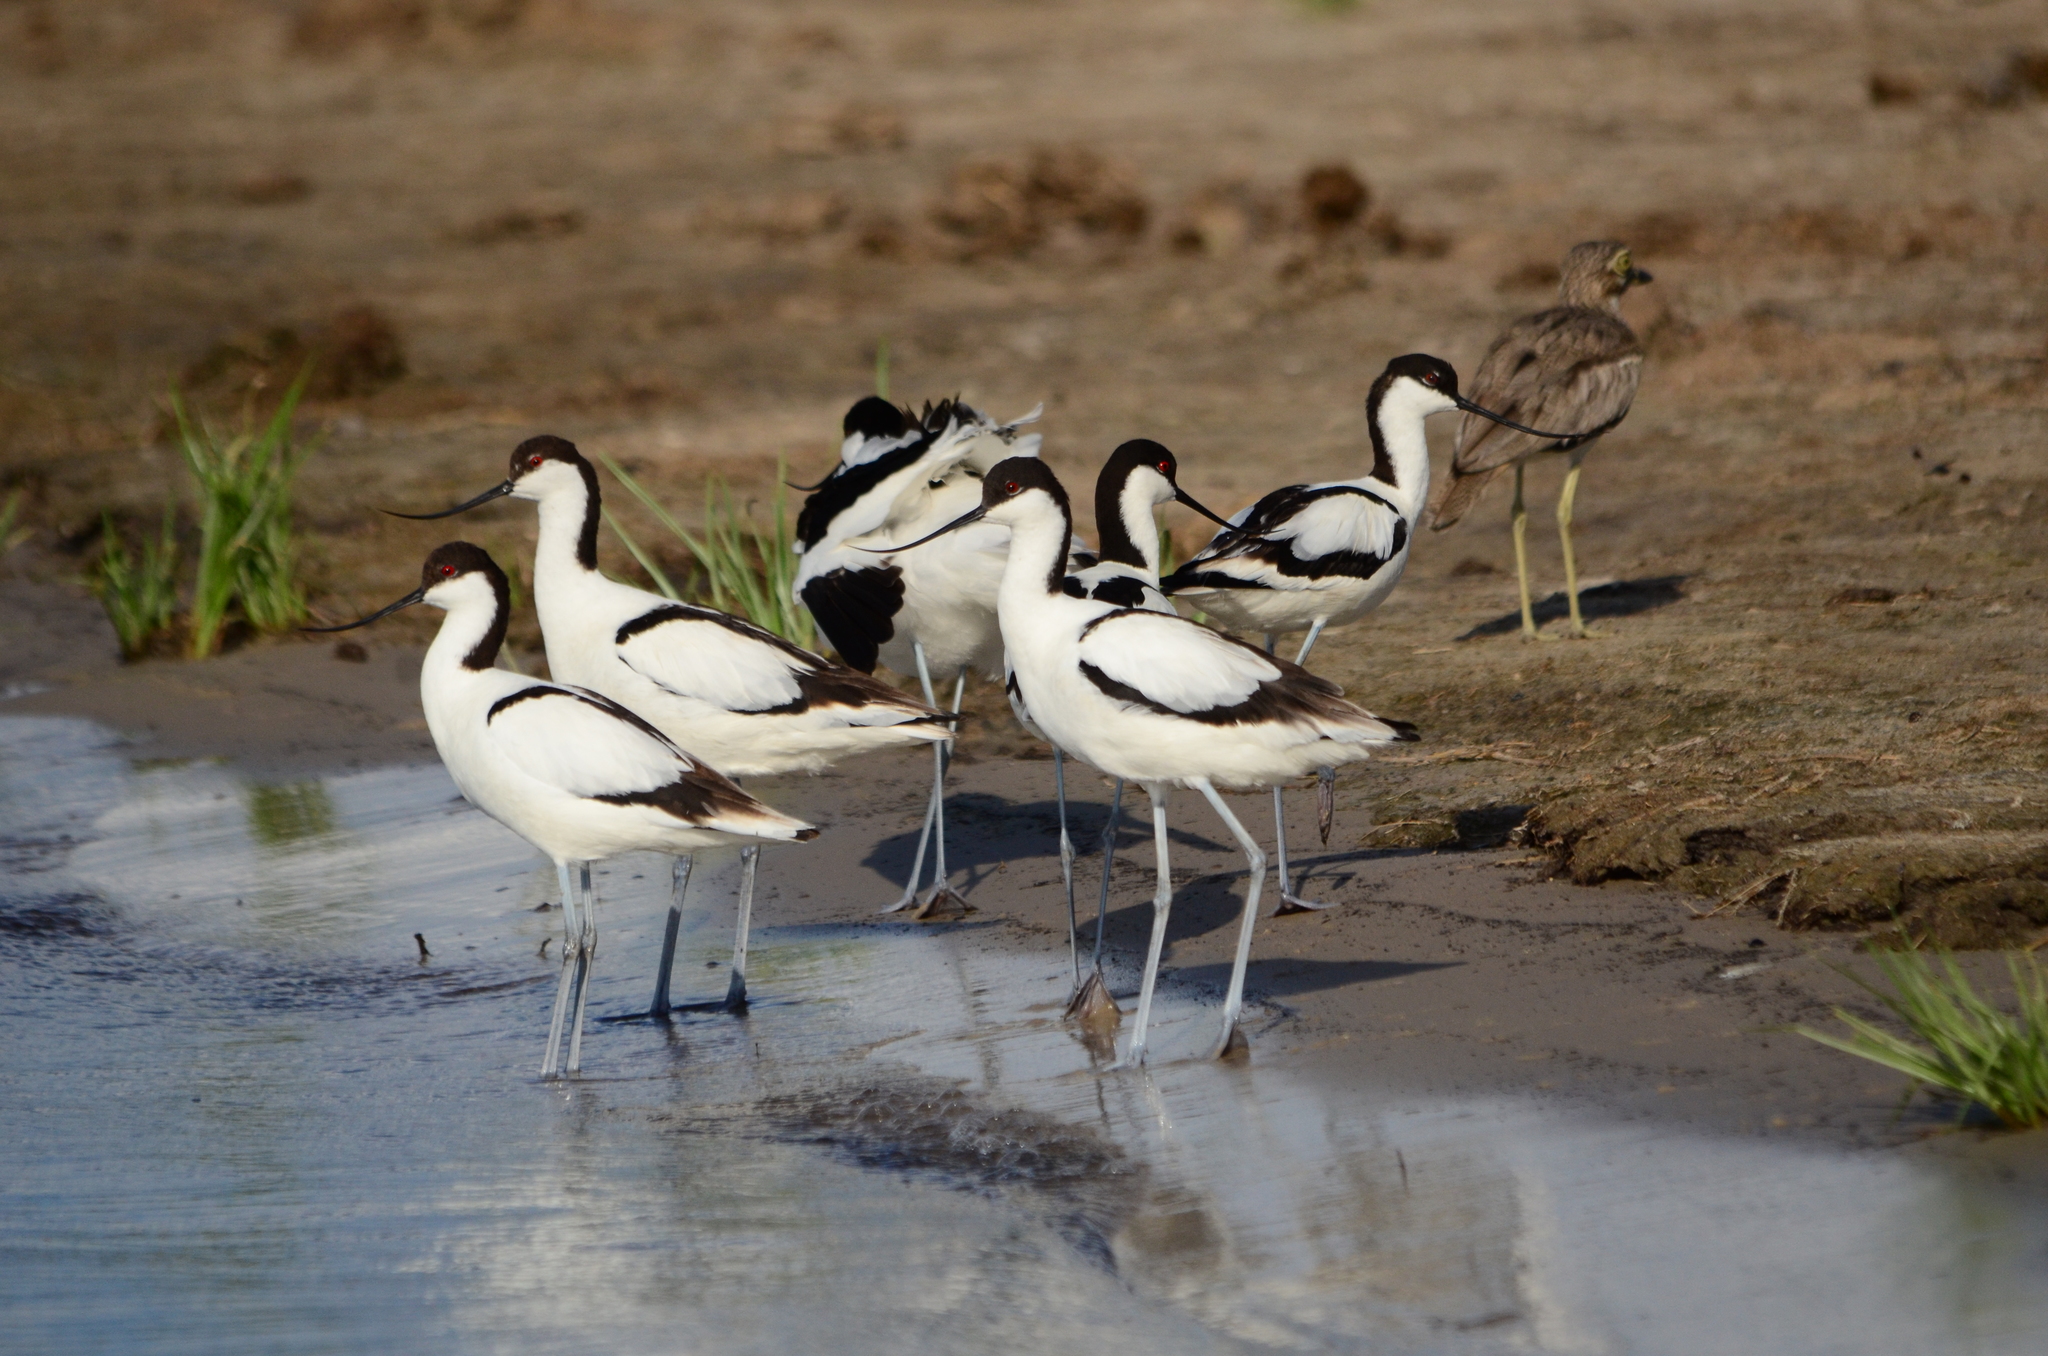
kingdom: Animalia
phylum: Chordata
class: Aves
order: Charadriiformes
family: Recurvirostridae
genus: Recurvirostra
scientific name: Recurvirostra avosetta
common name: Pied avocet
